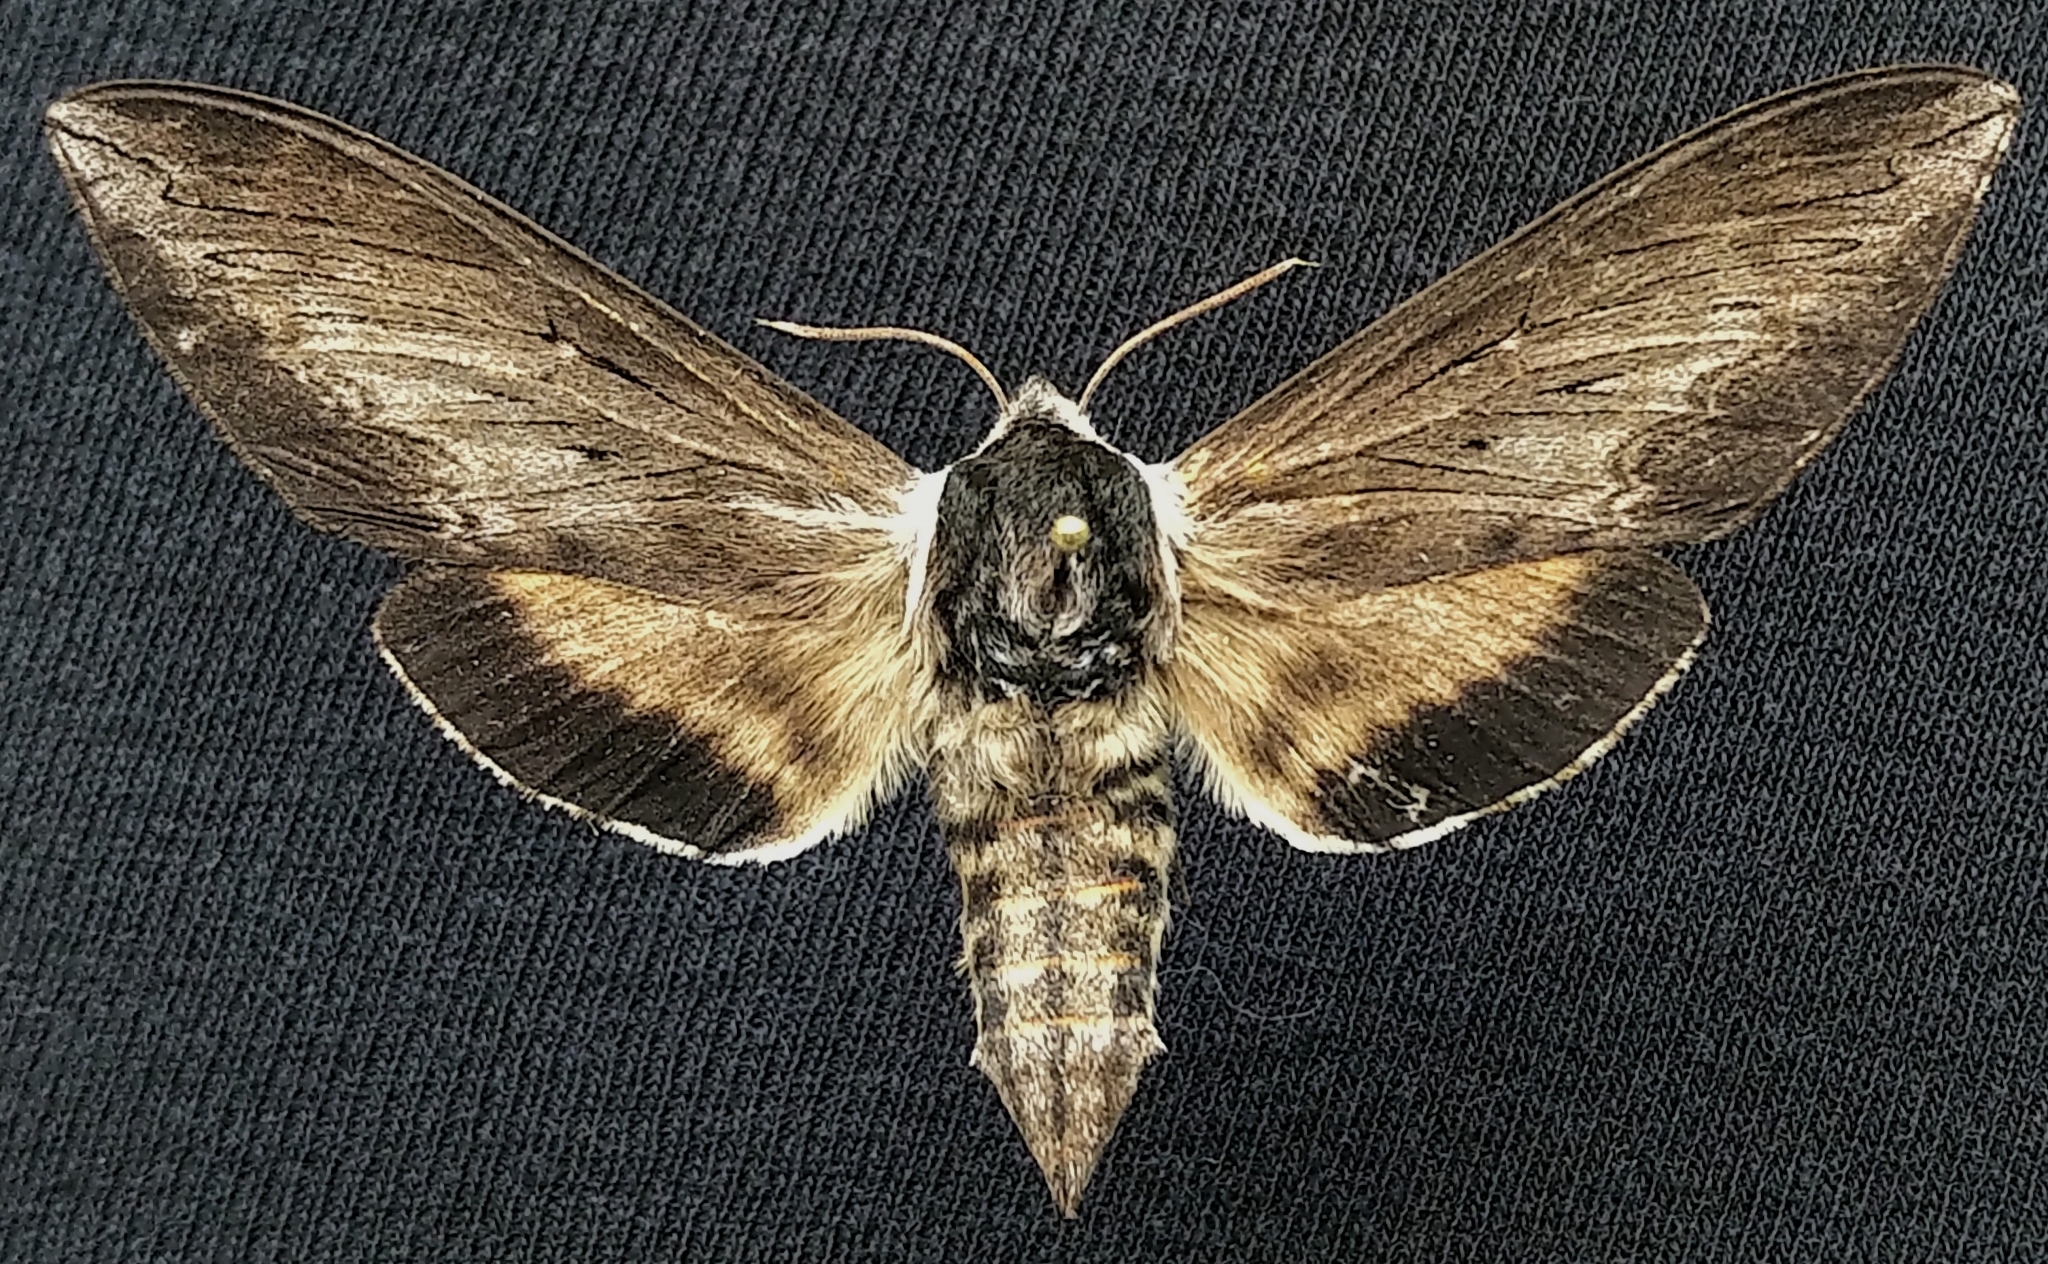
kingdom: Animalia
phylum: Arthropoda
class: Insecta
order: Lepidoptera
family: Sphingidae
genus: Sphinx
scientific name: Sphinx luscitiosa
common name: Clemen's sphinx
